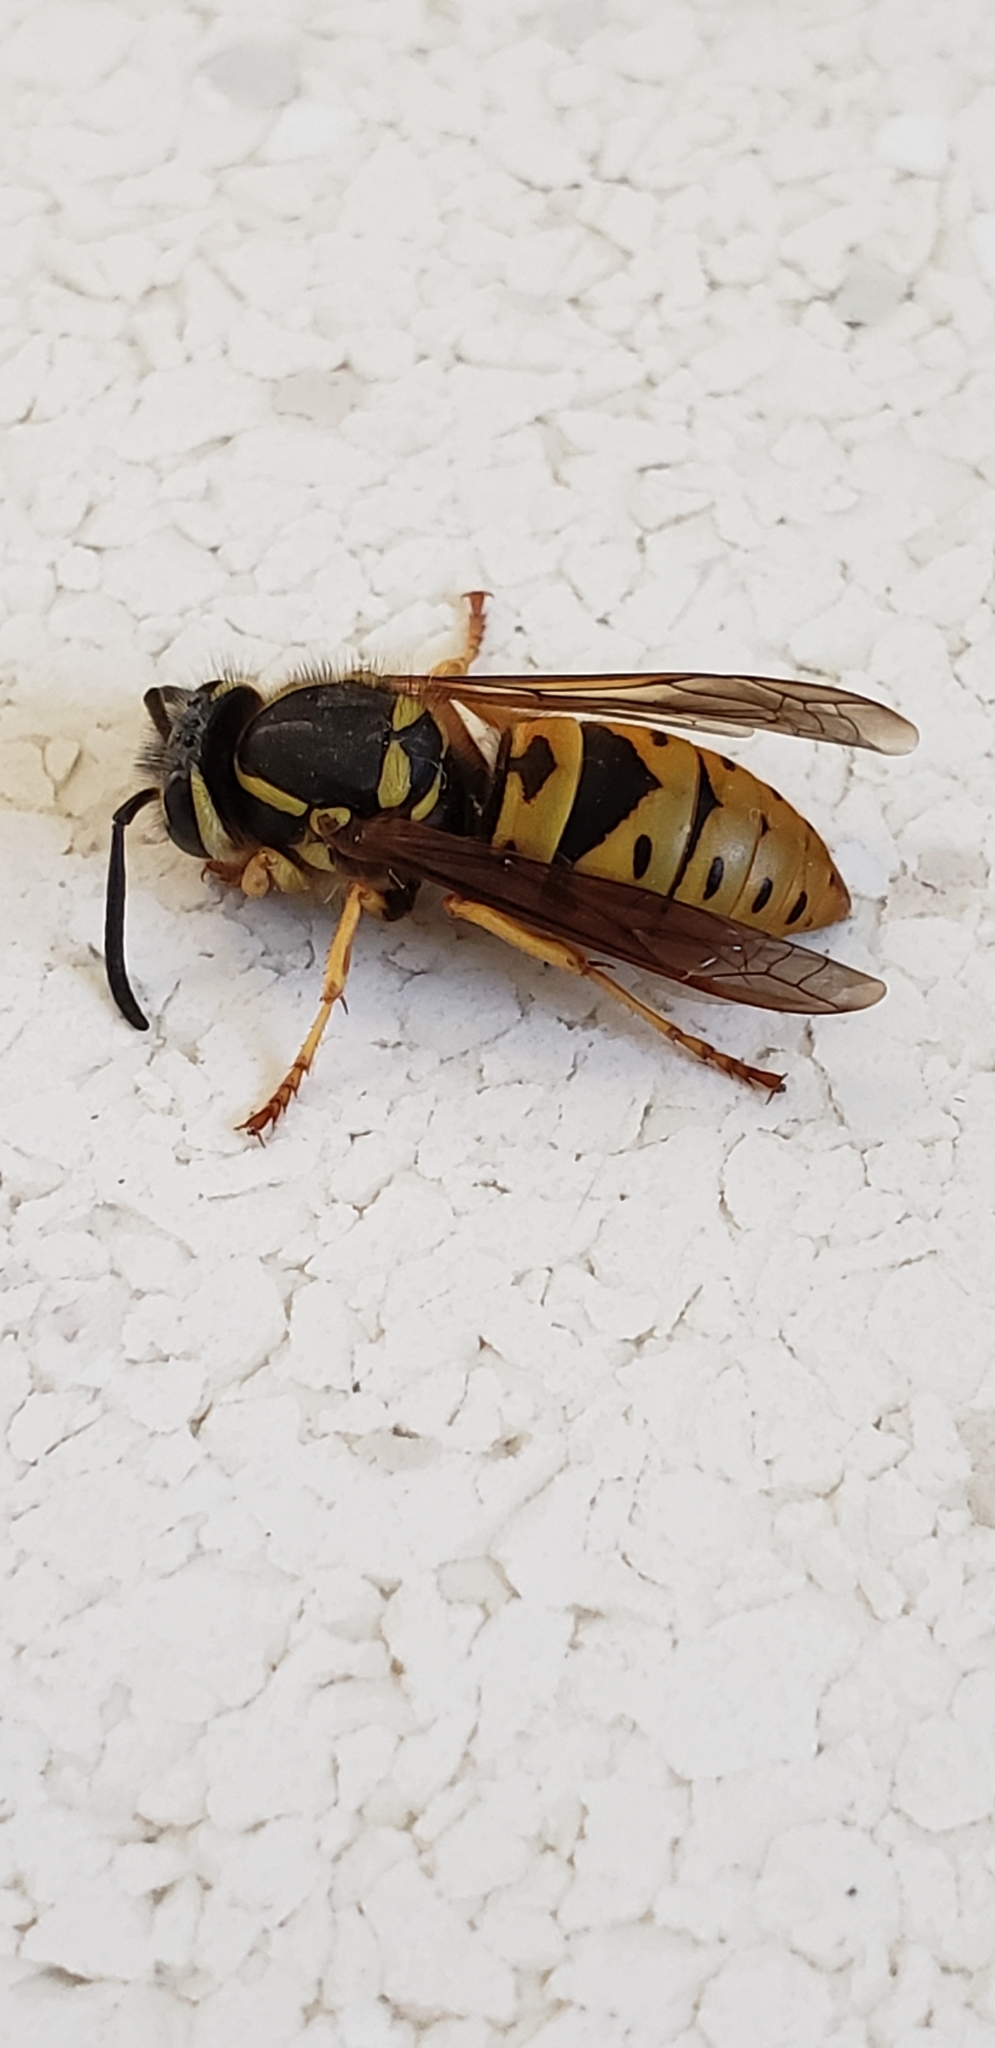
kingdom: Animalia
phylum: Arthropoda
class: Insecta
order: Hymenoptera
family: Vespidae
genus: Vespula
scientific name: Vespula maculifrons
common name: Eastern yellowjacket
